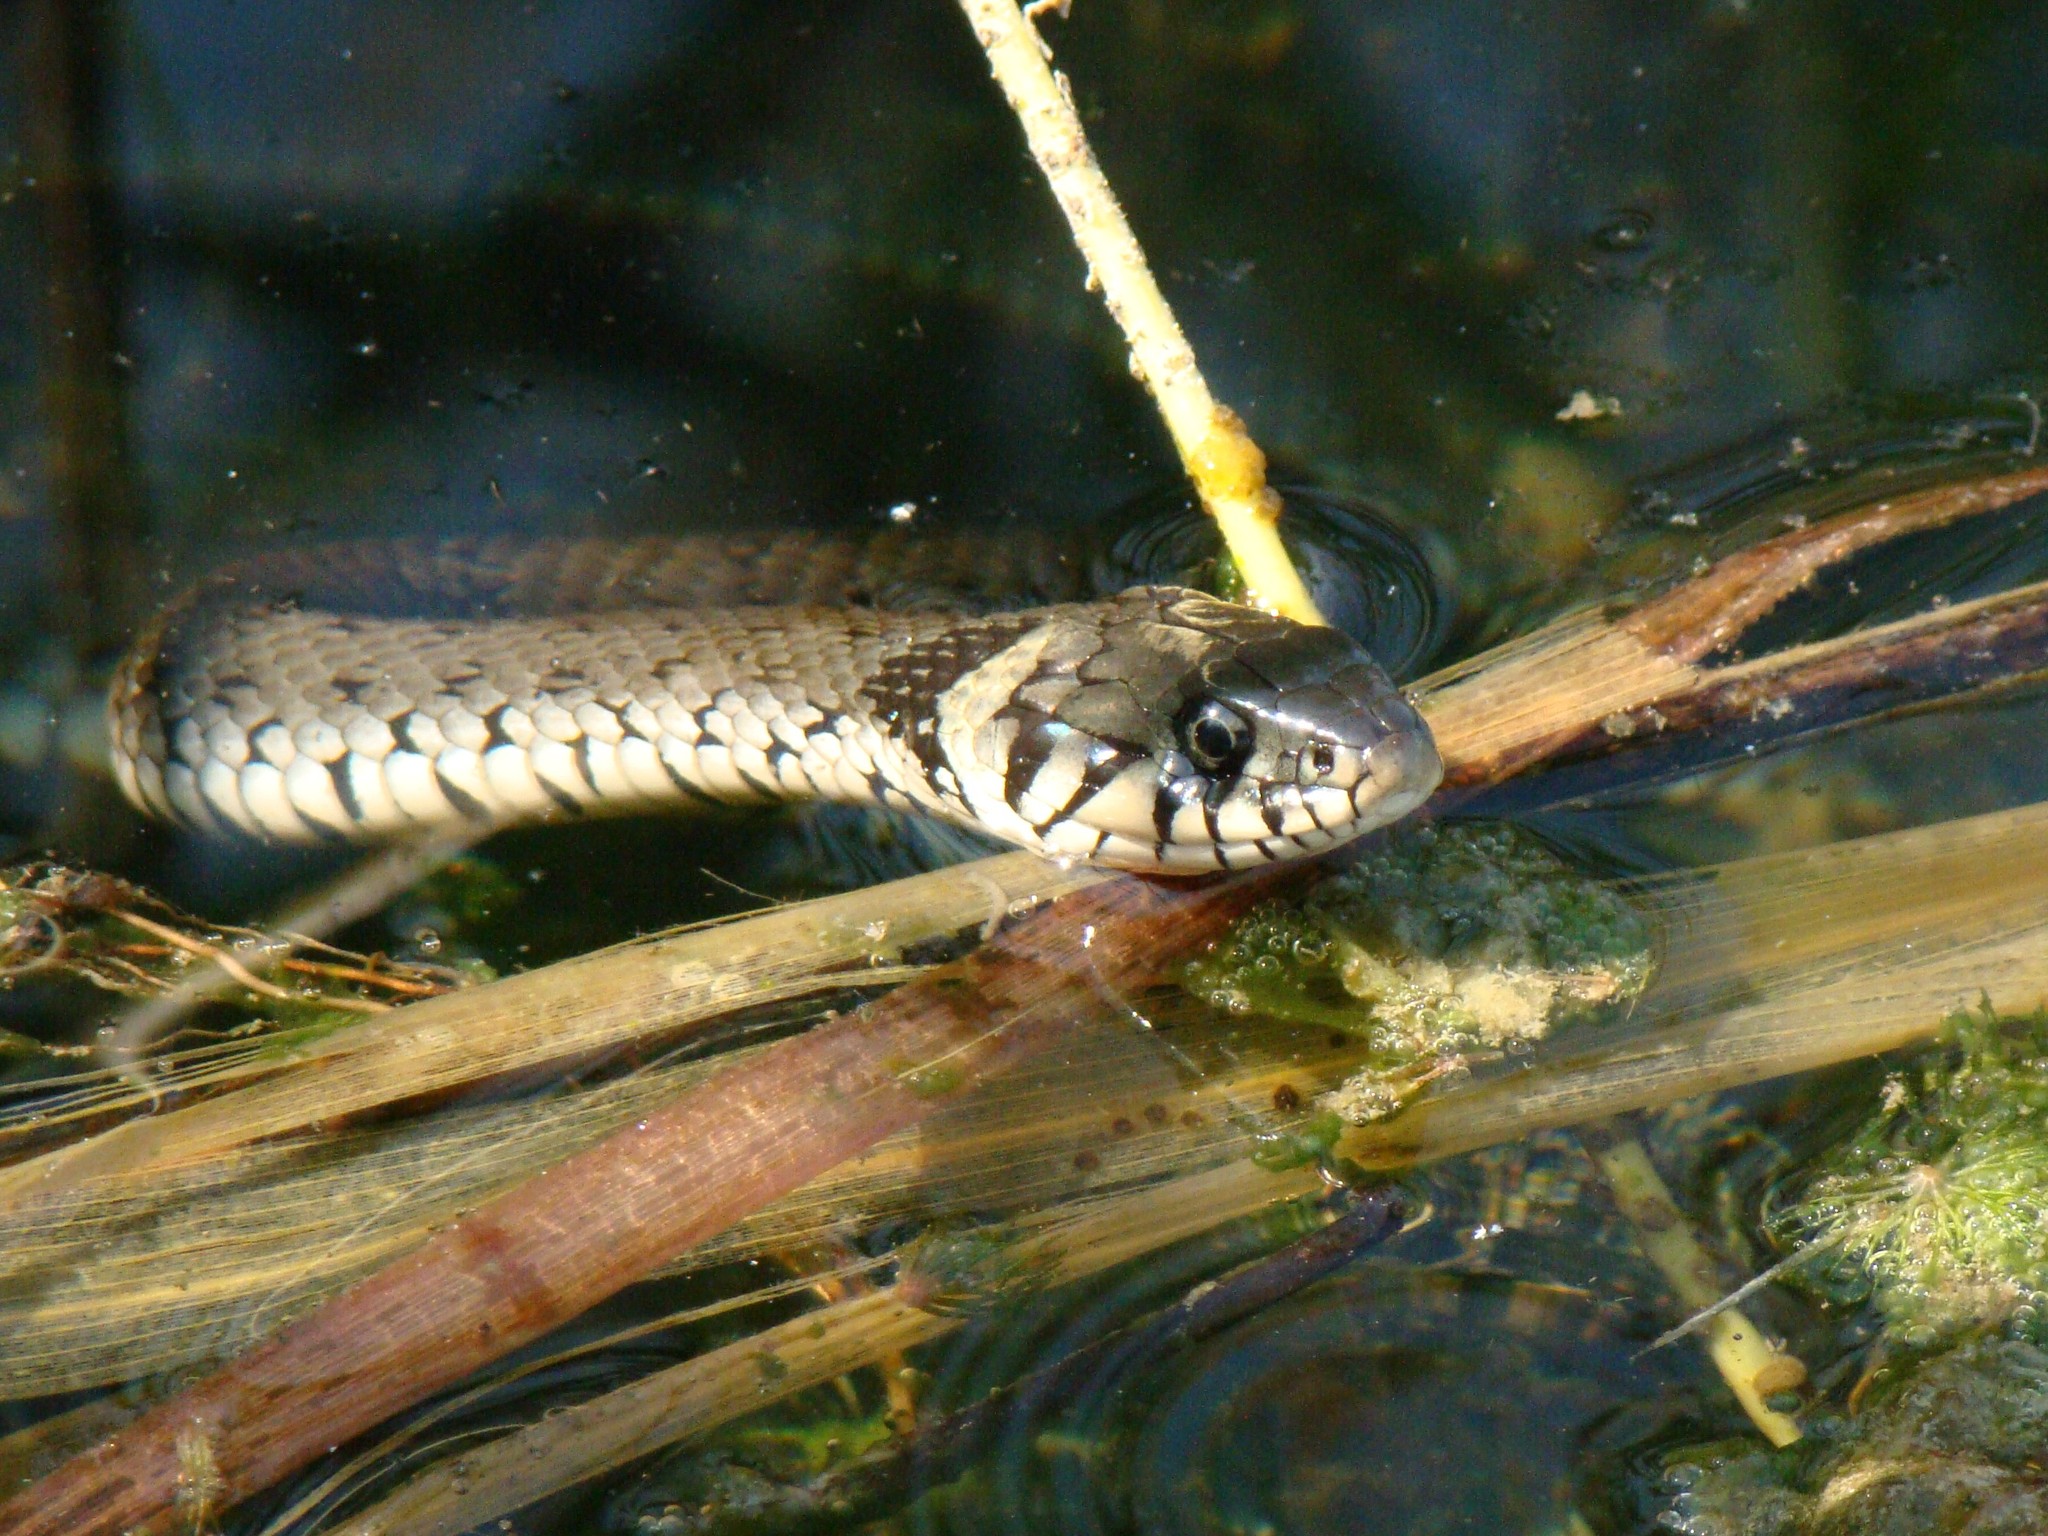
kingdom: Animalia
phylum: Chordata
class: Squamata
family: Colubridae
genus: Natrix
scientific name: Natrix natrix
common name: Grass snake
